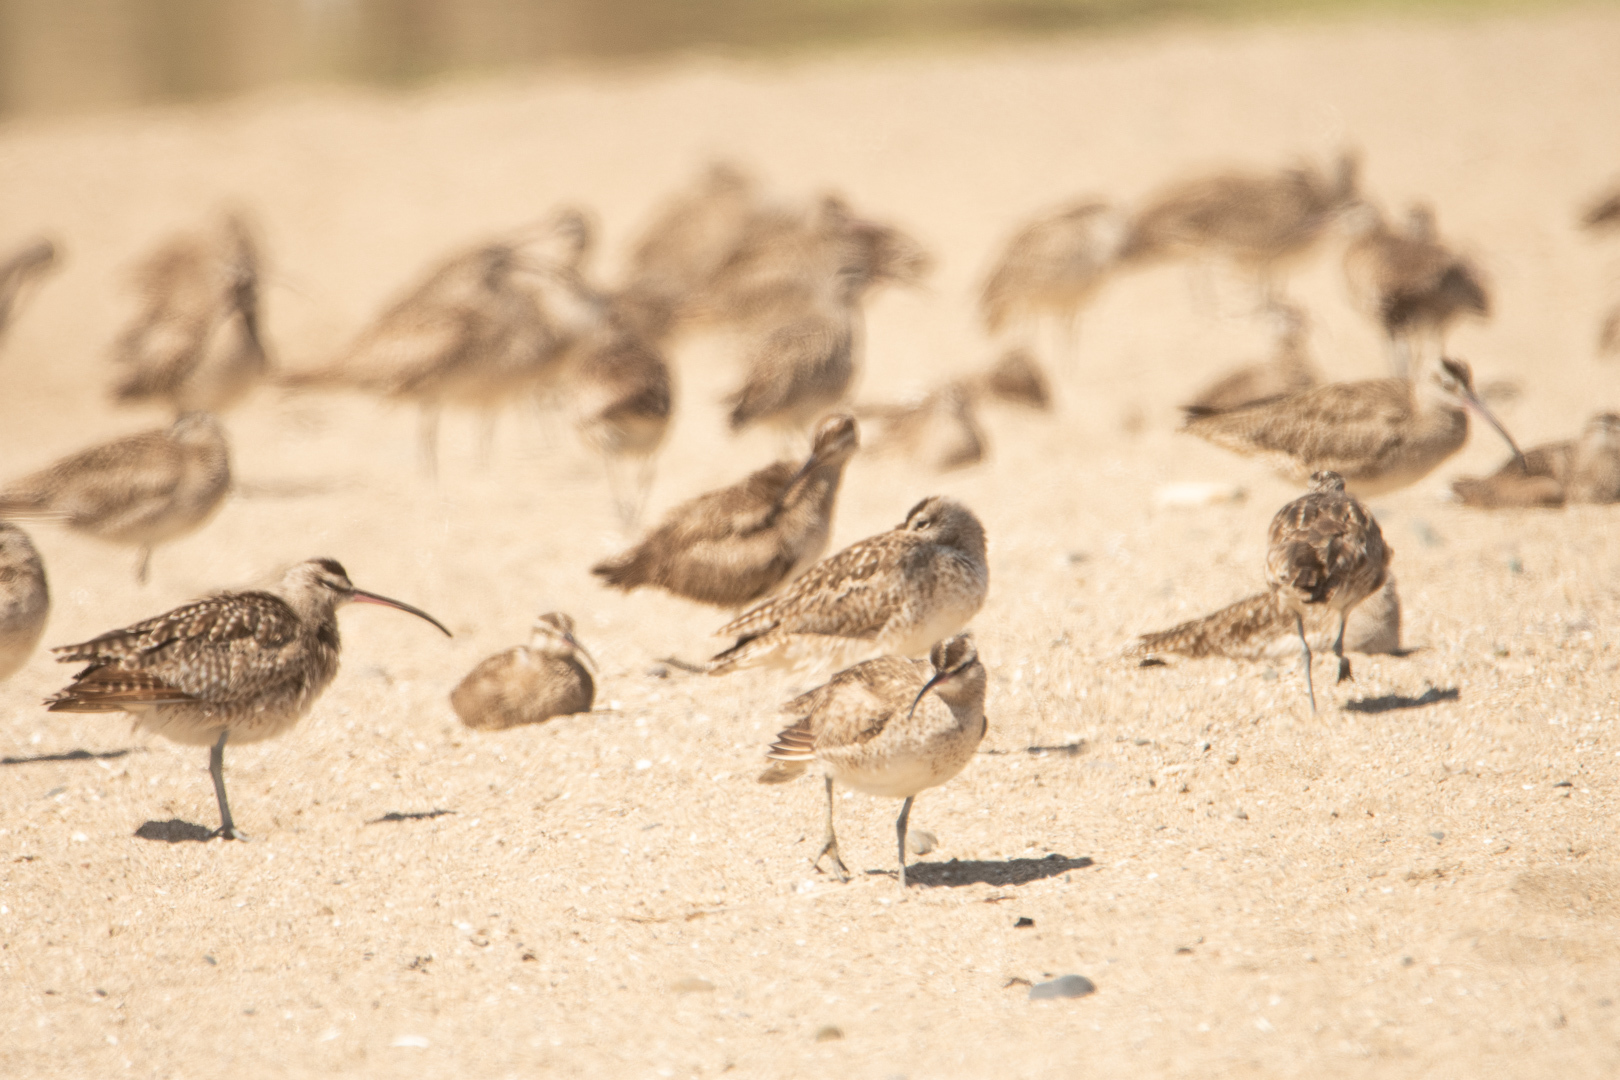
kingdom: Animalia
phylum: Chordata
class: Aves
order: Charadriiformes
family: Scolopacidae
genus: Numenius
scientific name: Numenius hudsonicus
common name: Hudsonian whimbrel
